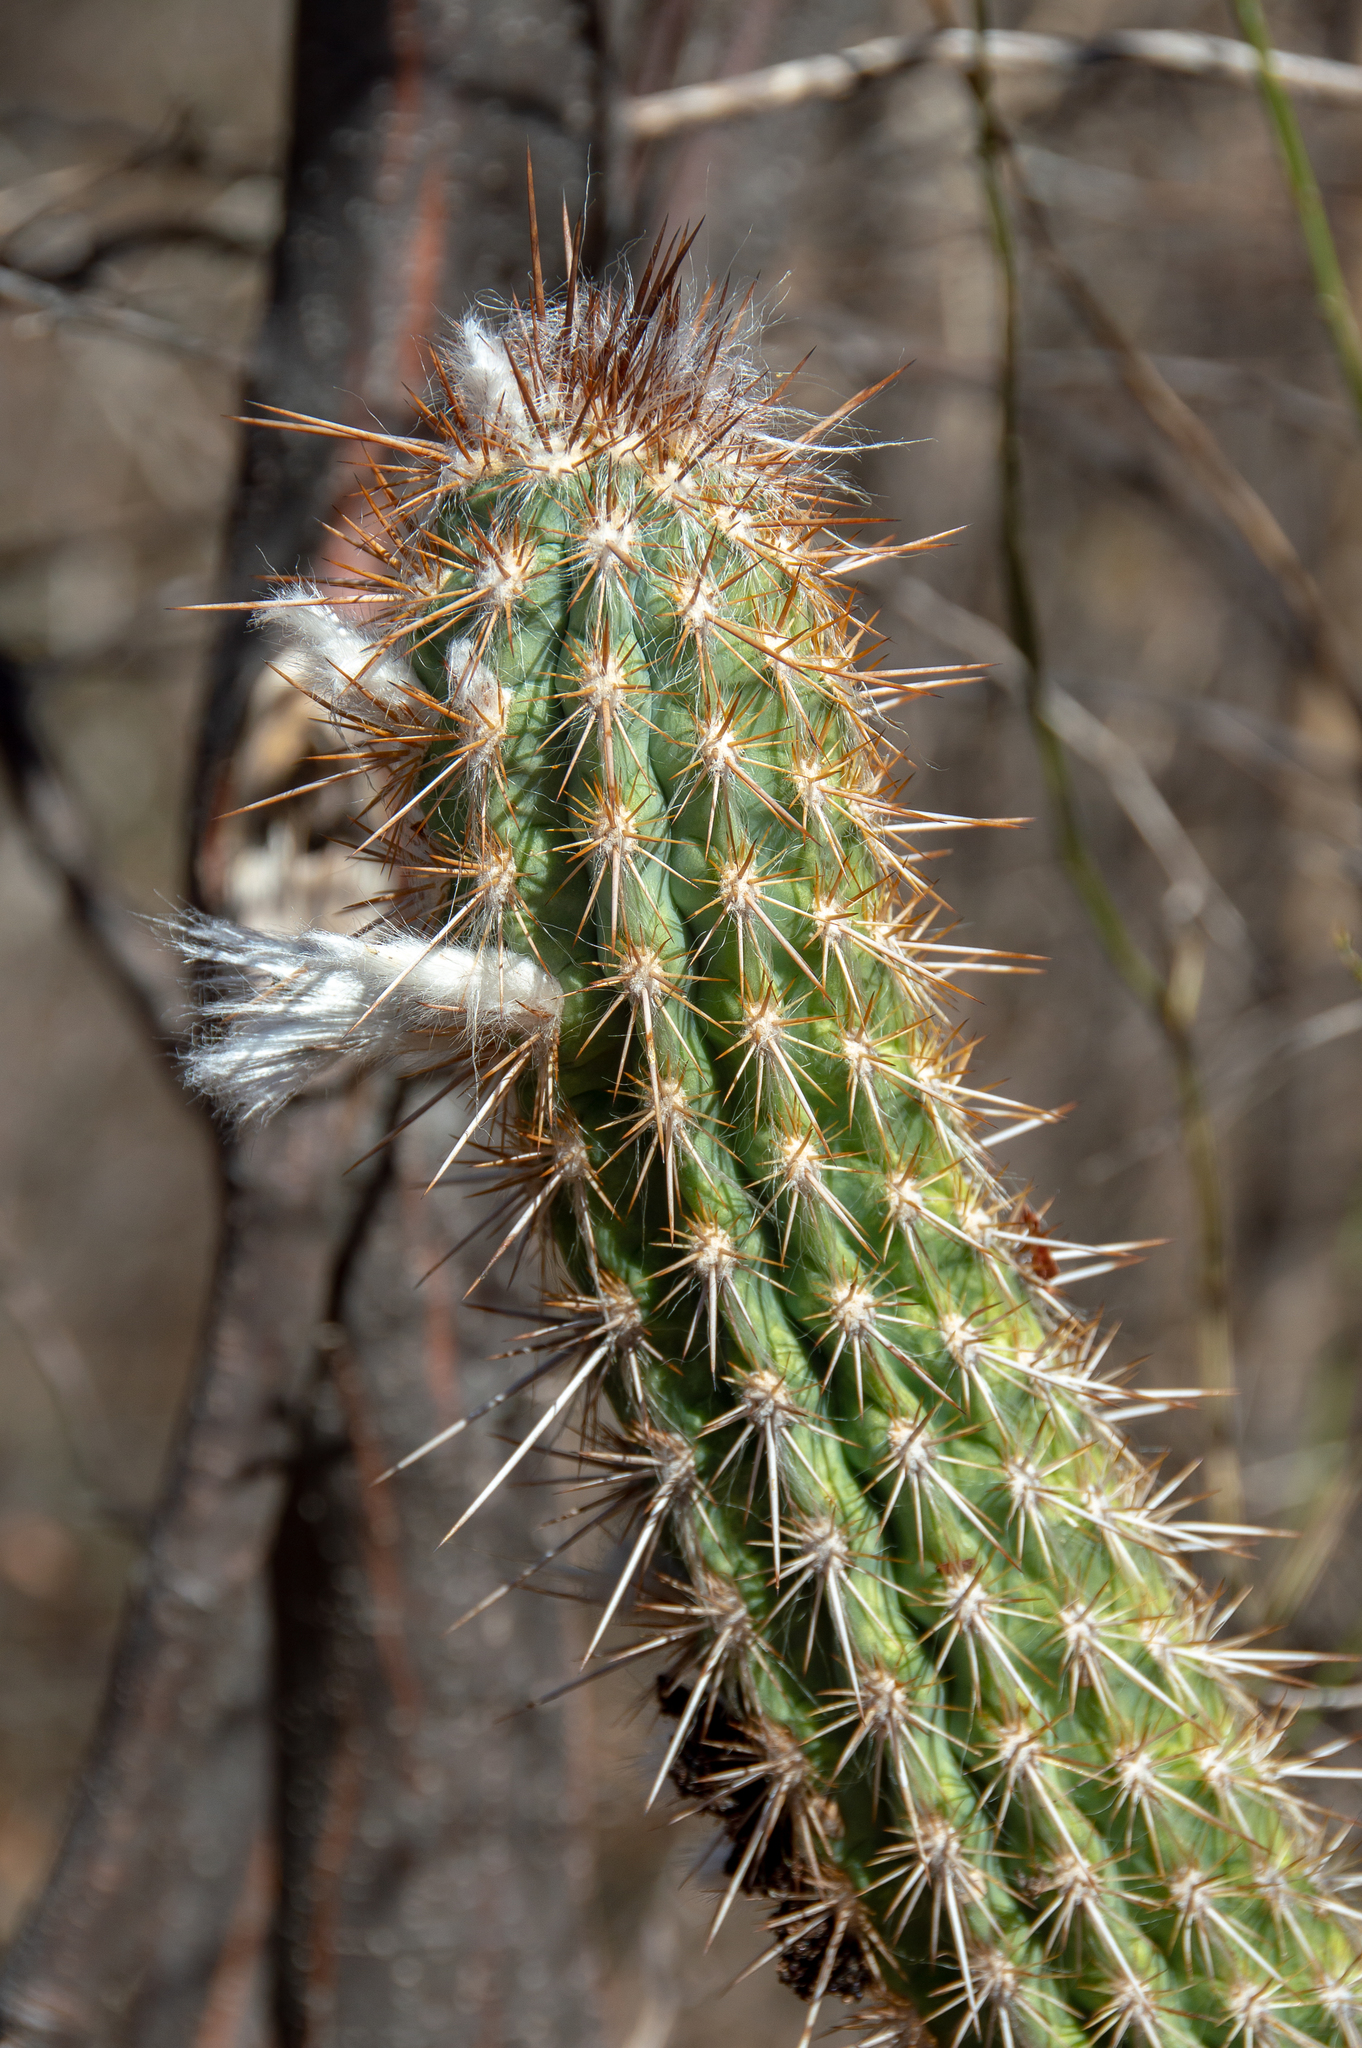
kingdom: Plantae
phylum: Tracheophyta
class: Magnoliopsida
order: Caryophyllales
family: Cactaceae
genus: Xiquexique
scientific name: Xiquexique gounellei
